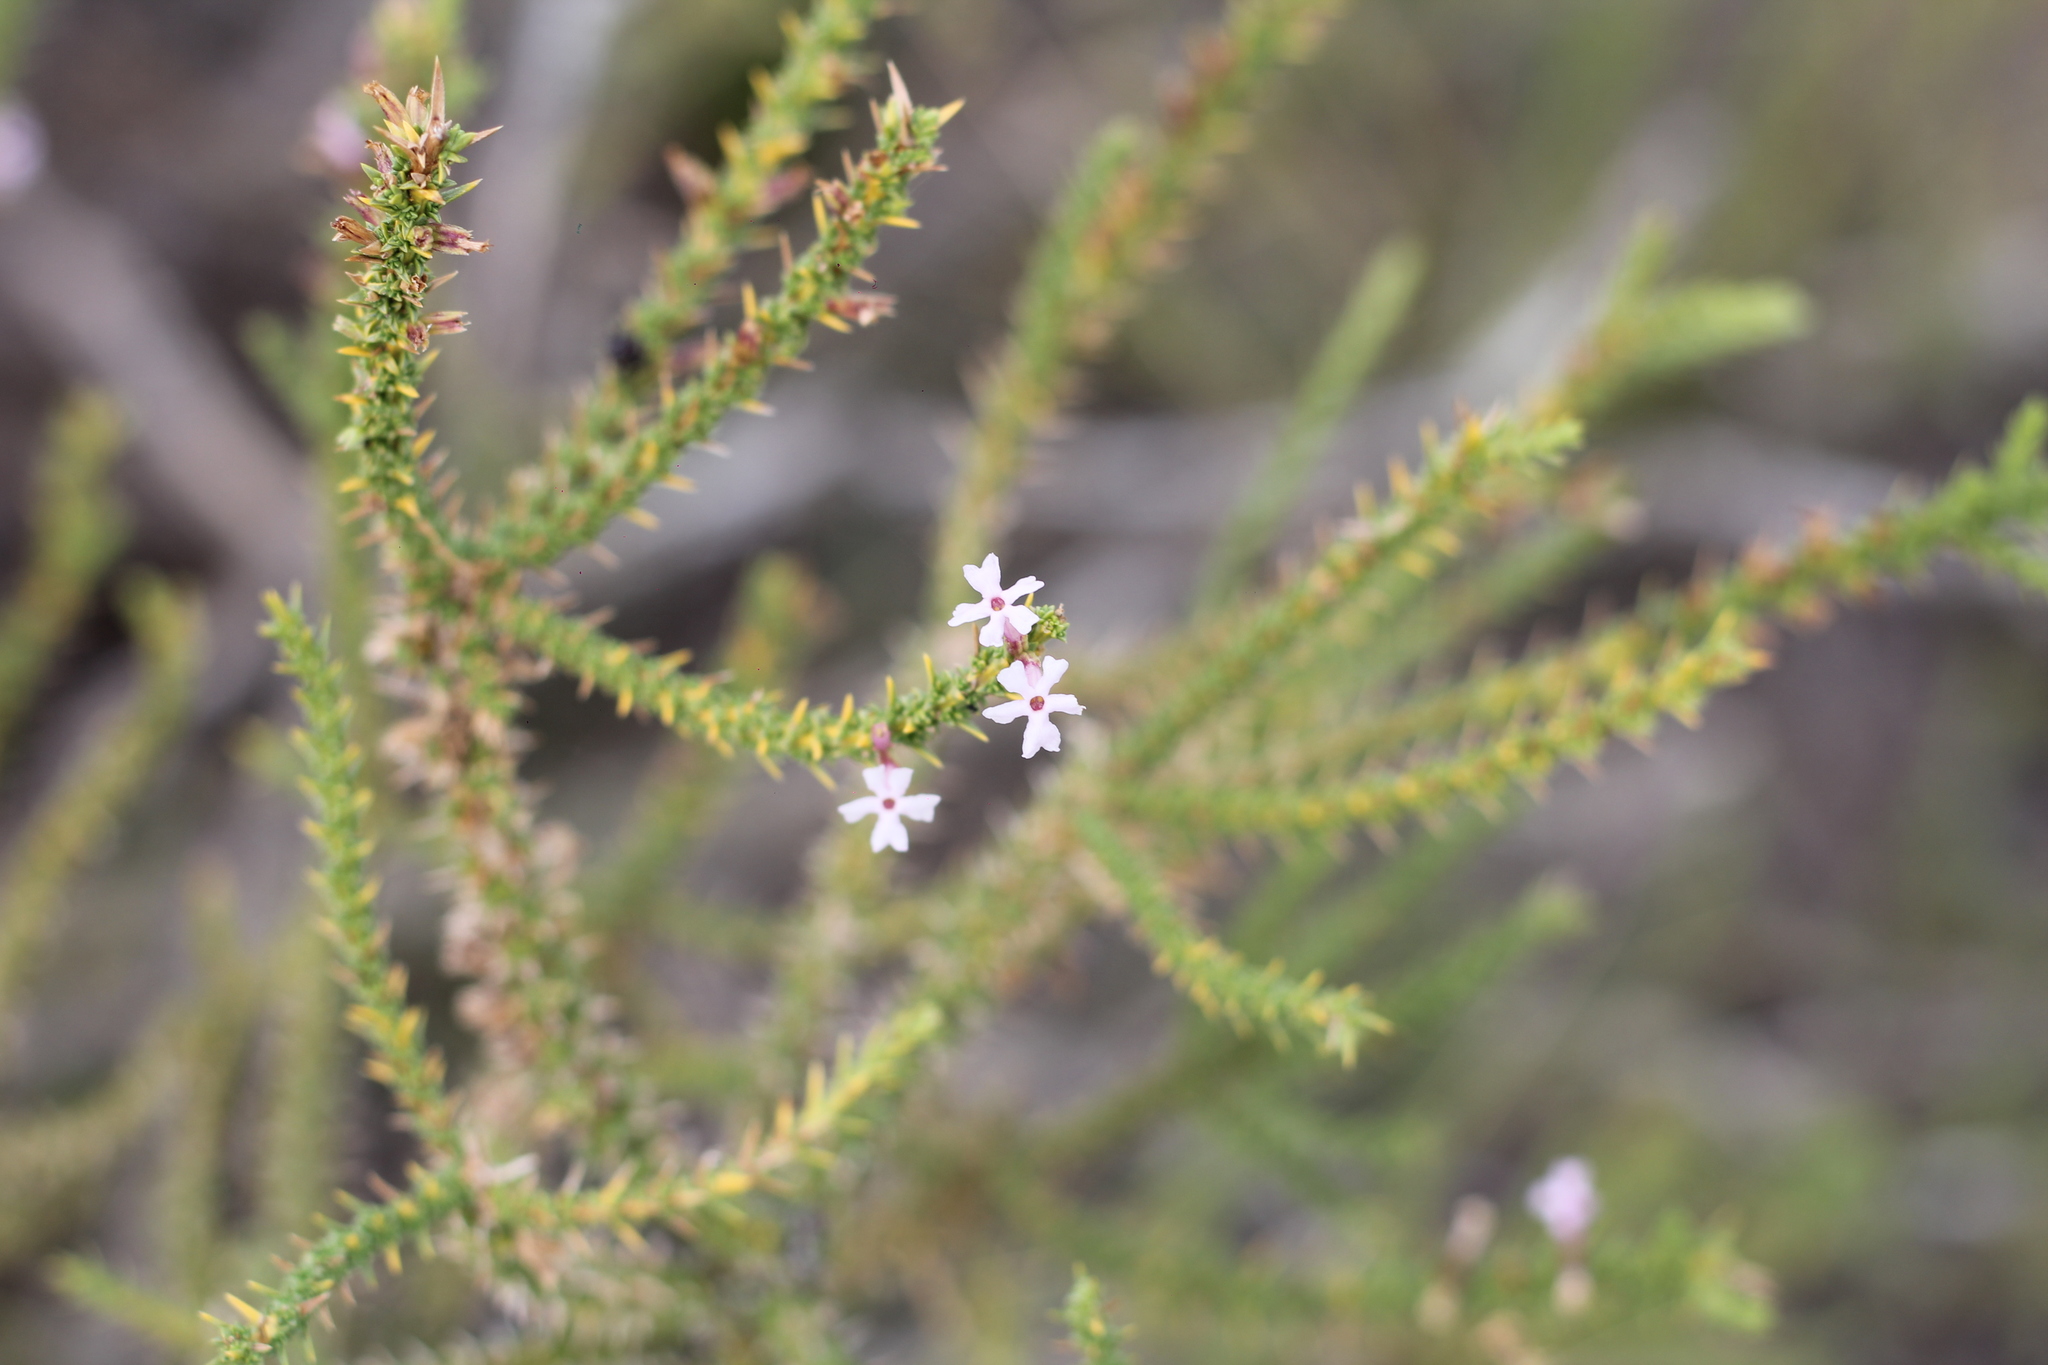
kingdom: Plantae
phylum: Tracheophyta
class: Magnoliopsida
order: Lamiales
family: Verbenaceae
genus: Junellia
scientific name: Junellia seriphioides
